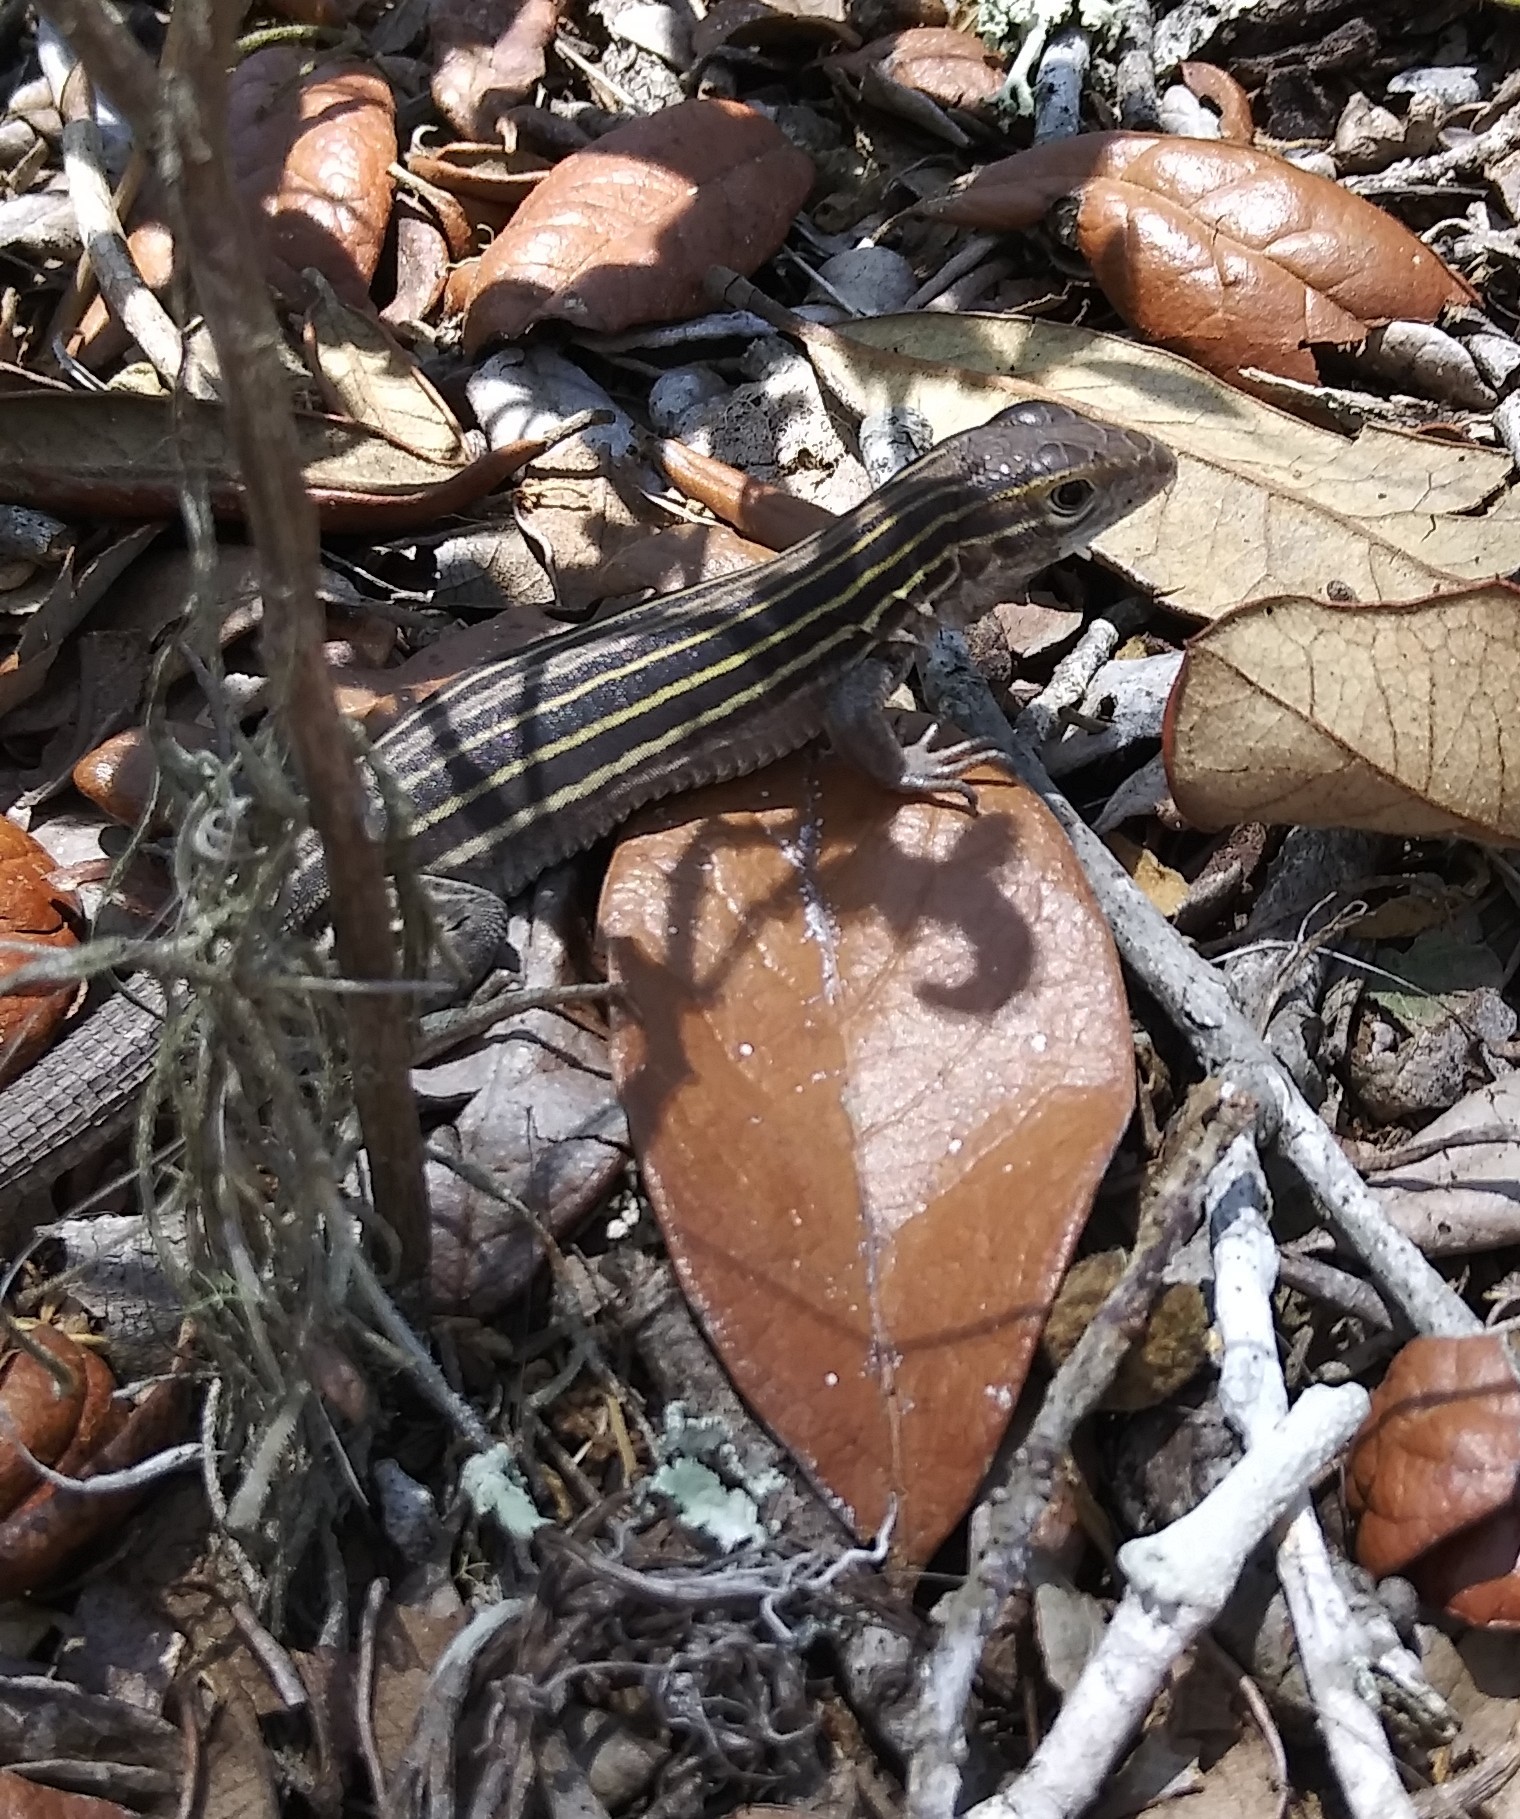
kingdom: Animalia
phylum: Chordata
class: Squamata
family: Teiidae
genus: Aspidoscelis
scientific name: Aspidoscelis sexlineatus
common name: Six-lined racerunner
